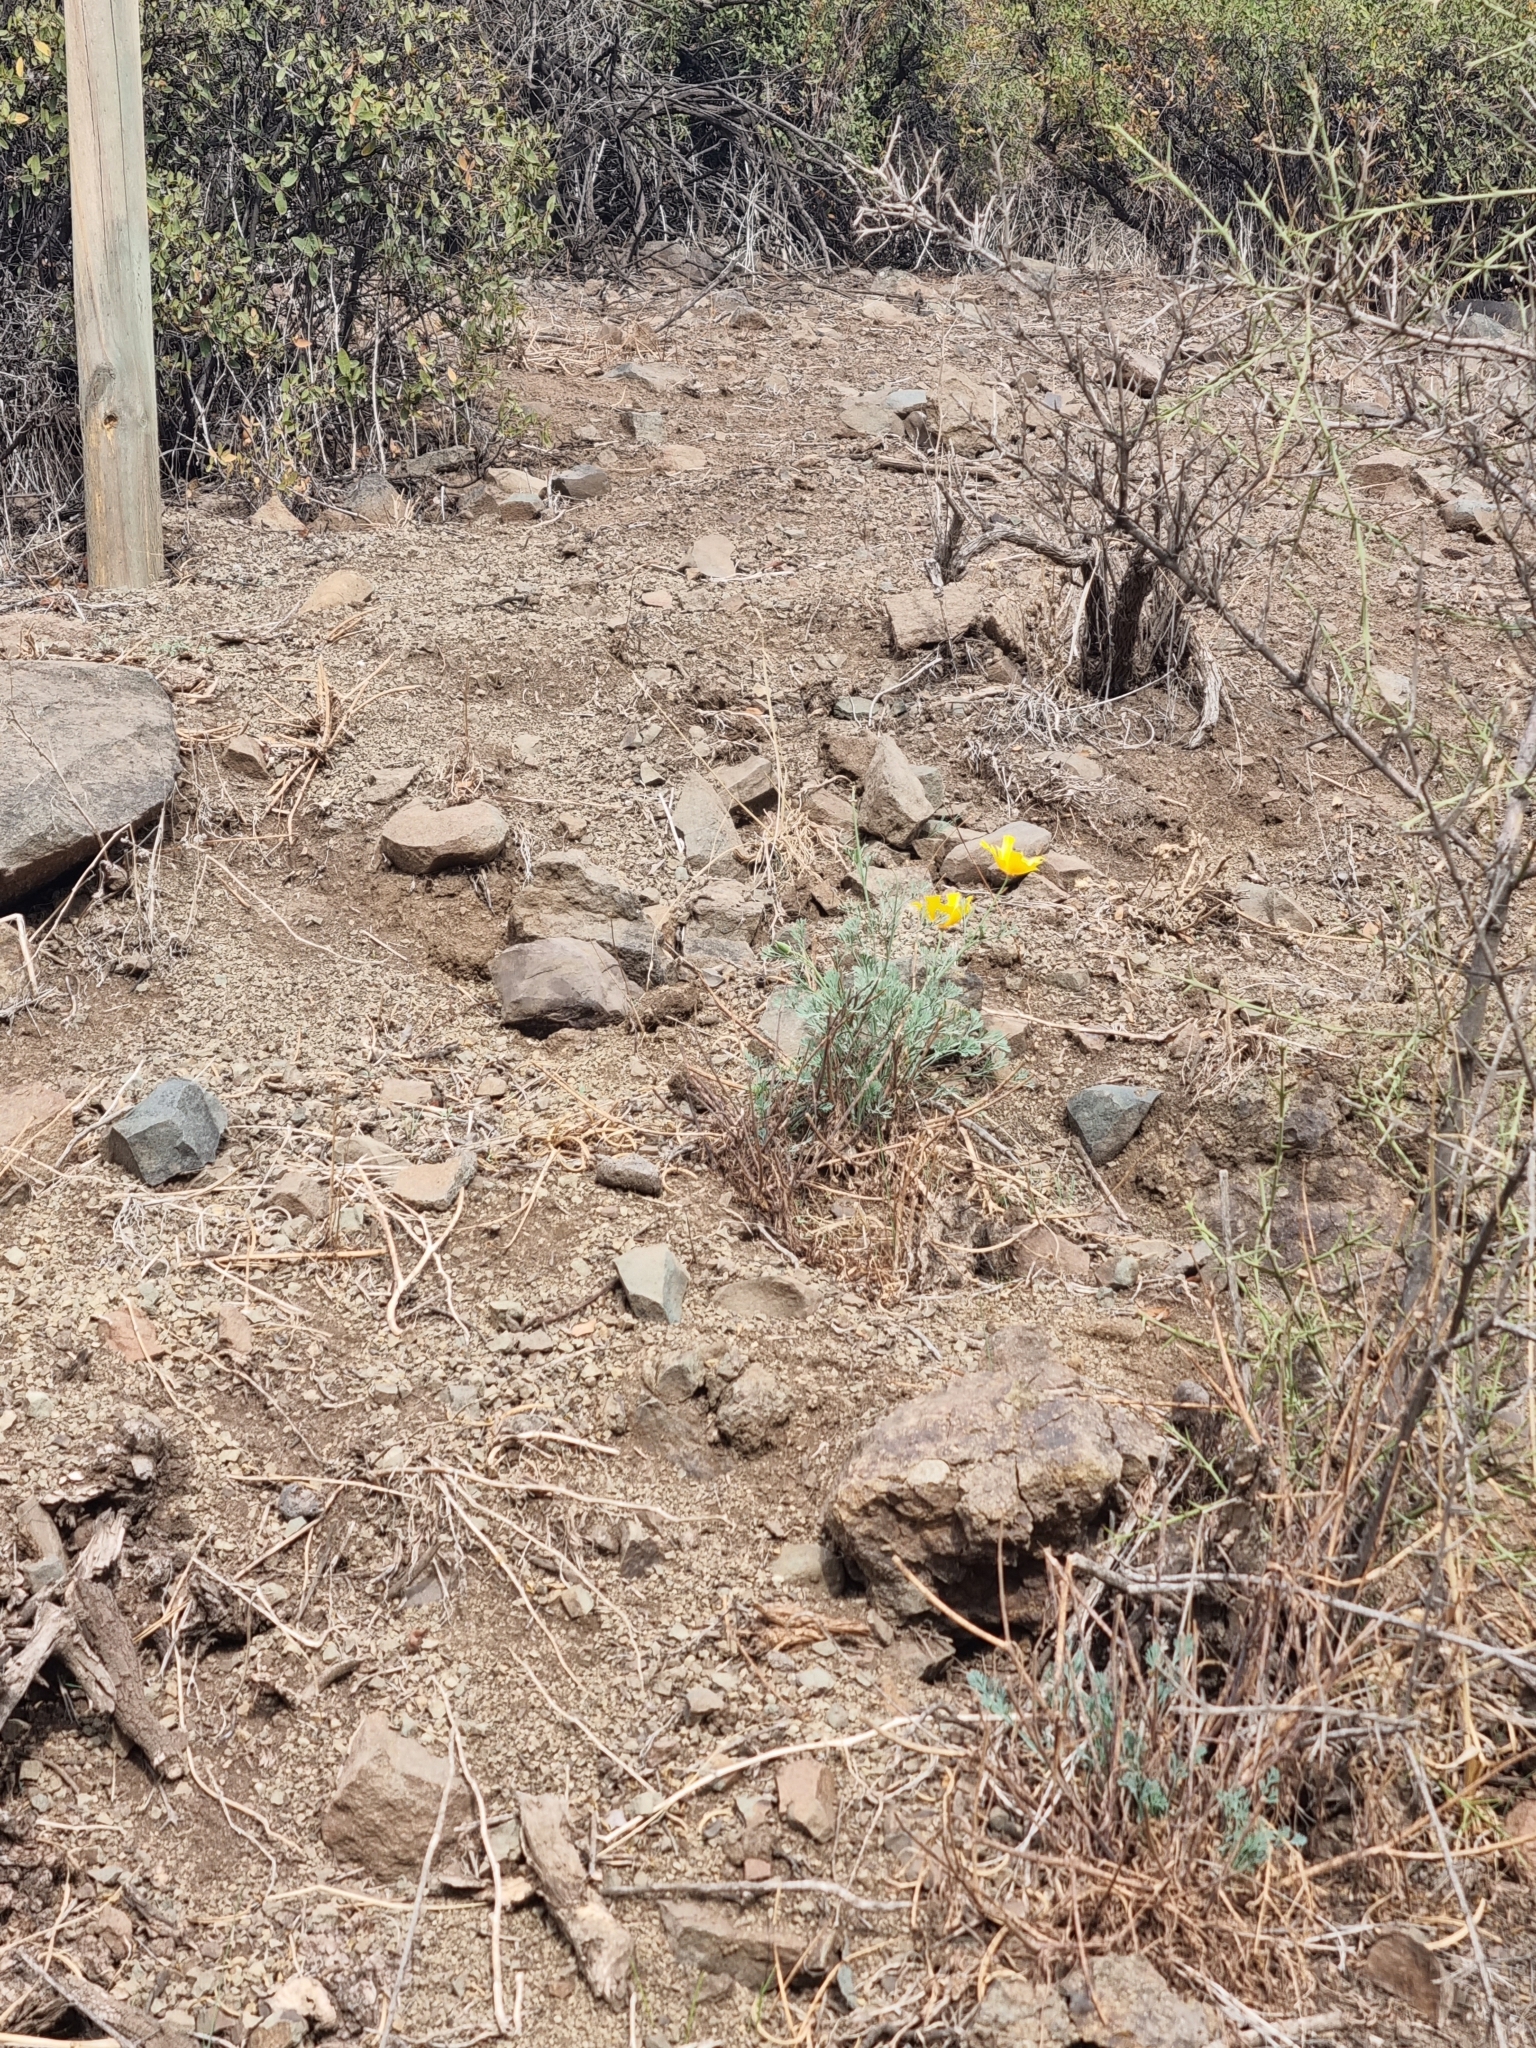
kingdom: Plantae
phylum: Tracheophyta
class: Magnoliopsida
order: Ranunculales
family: Papaveraceae
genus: Eschscholzia
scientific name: Eschscholzia californica
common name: California poppy
